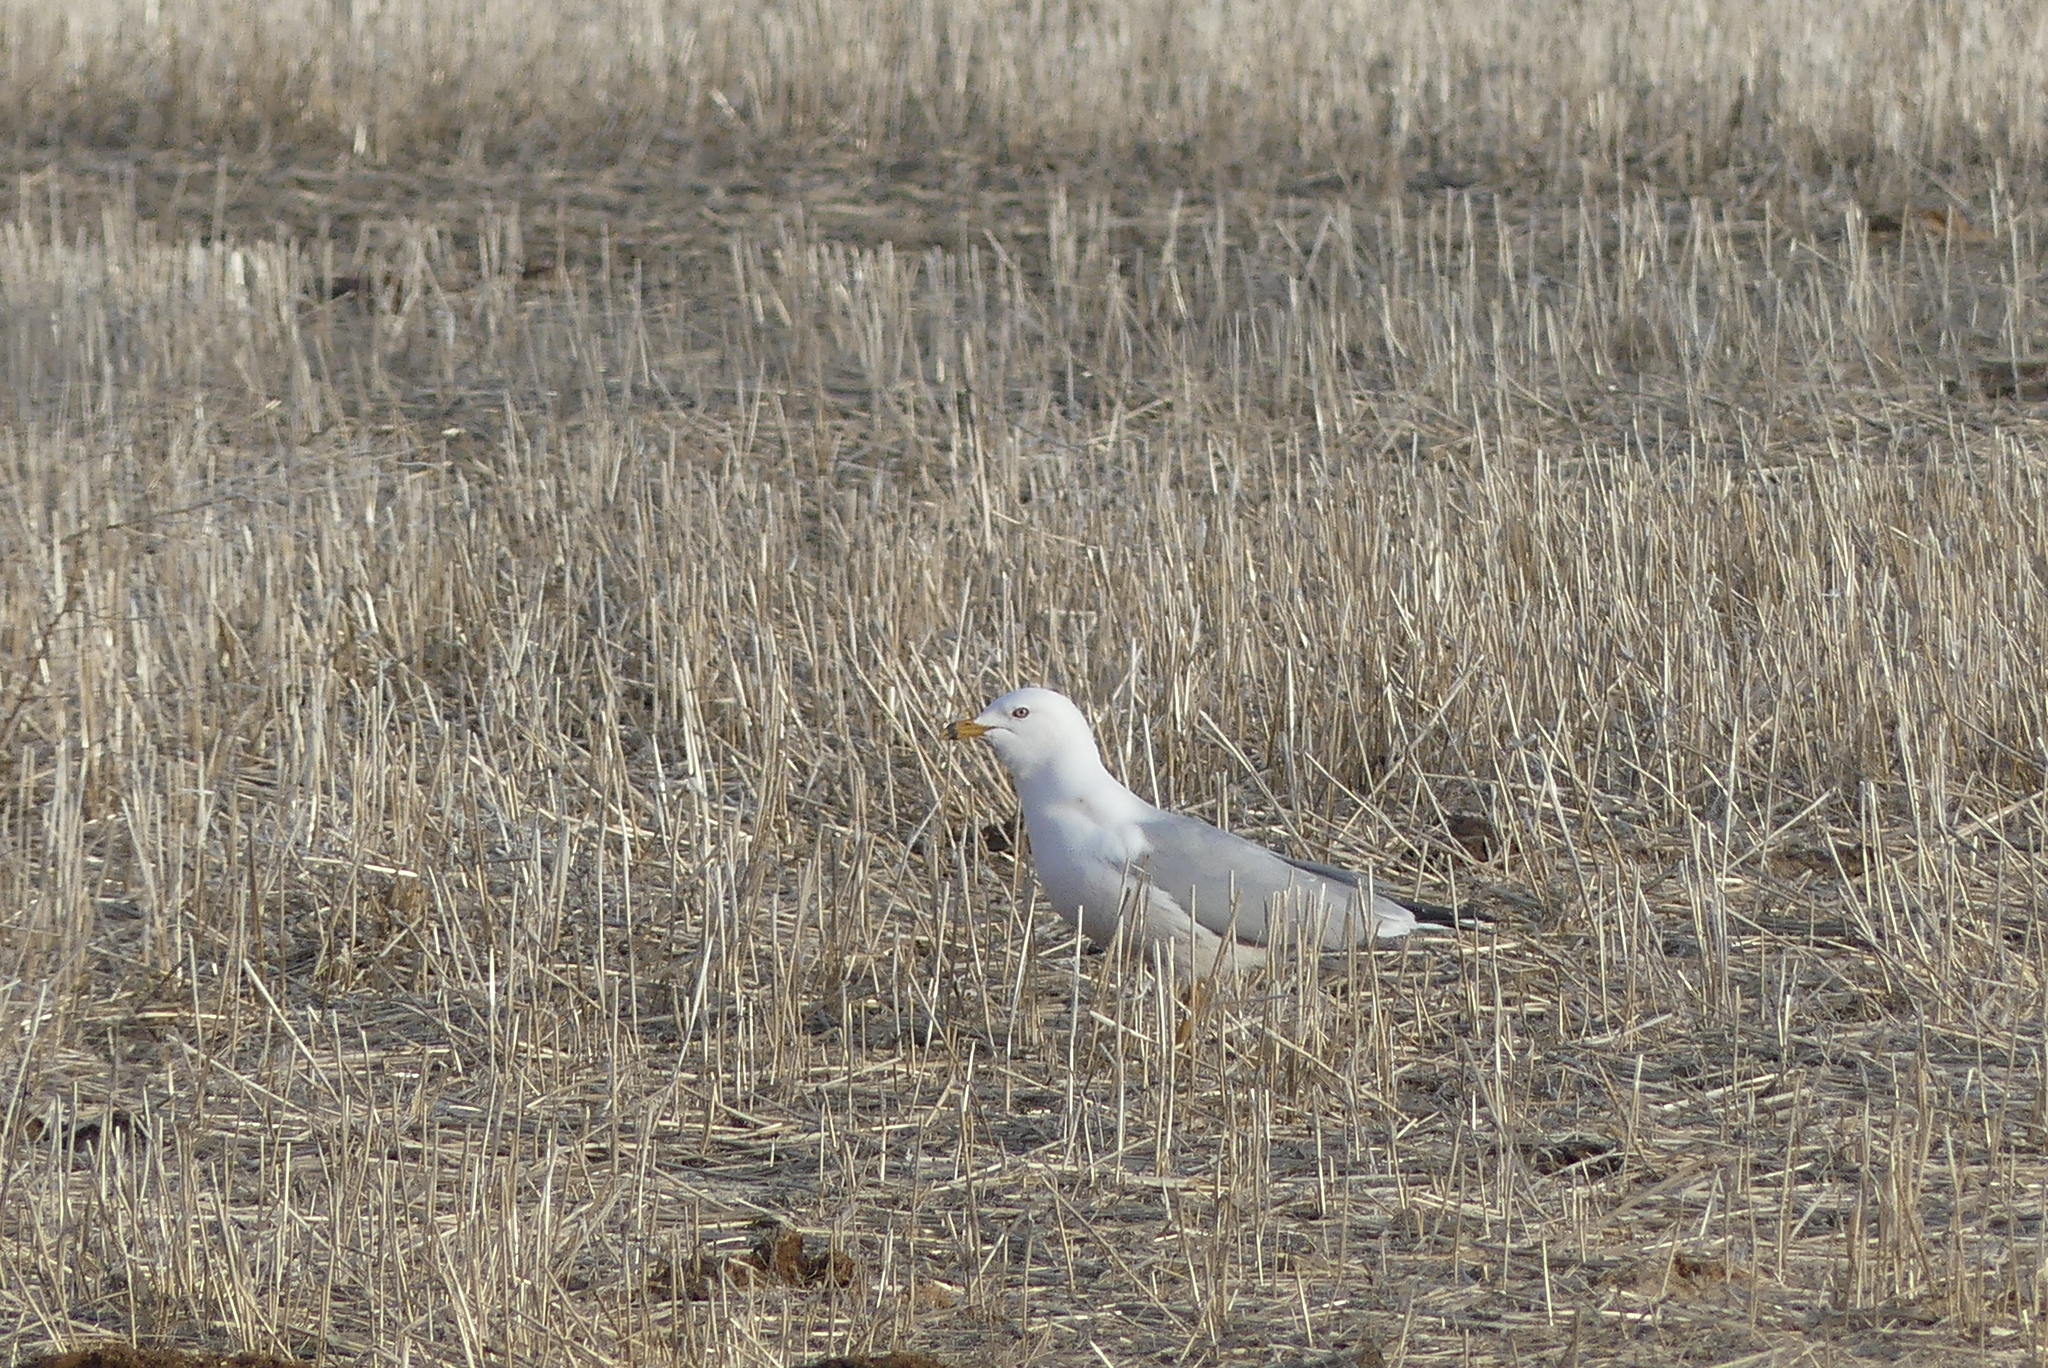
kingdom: Animalia
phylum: Chordata
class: Aves
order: Charadriiformes
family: Laridae
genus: Larus
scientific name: Larus delawarensis
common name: Ring-billed gull
